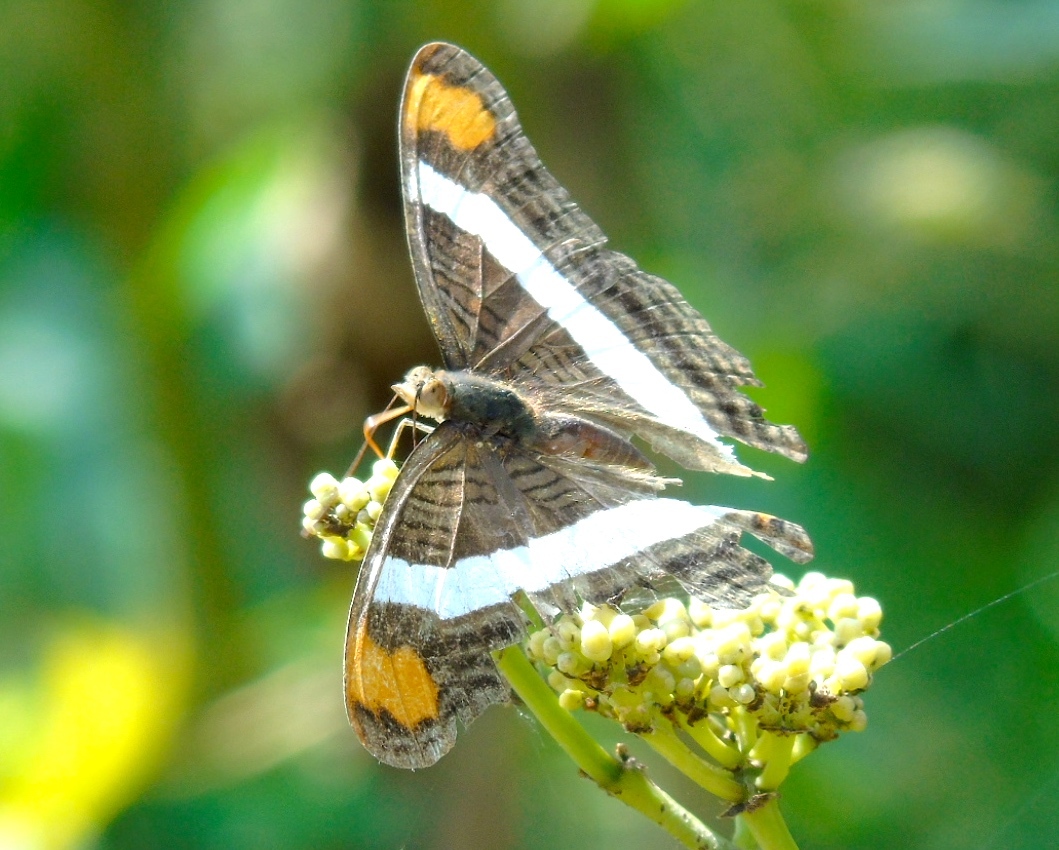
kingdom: Animalia
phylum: Arthropoda
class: Insecta
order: Lepidoptera
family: Nymphalidae
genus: Limenitis
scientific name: Limenitis fessonia
